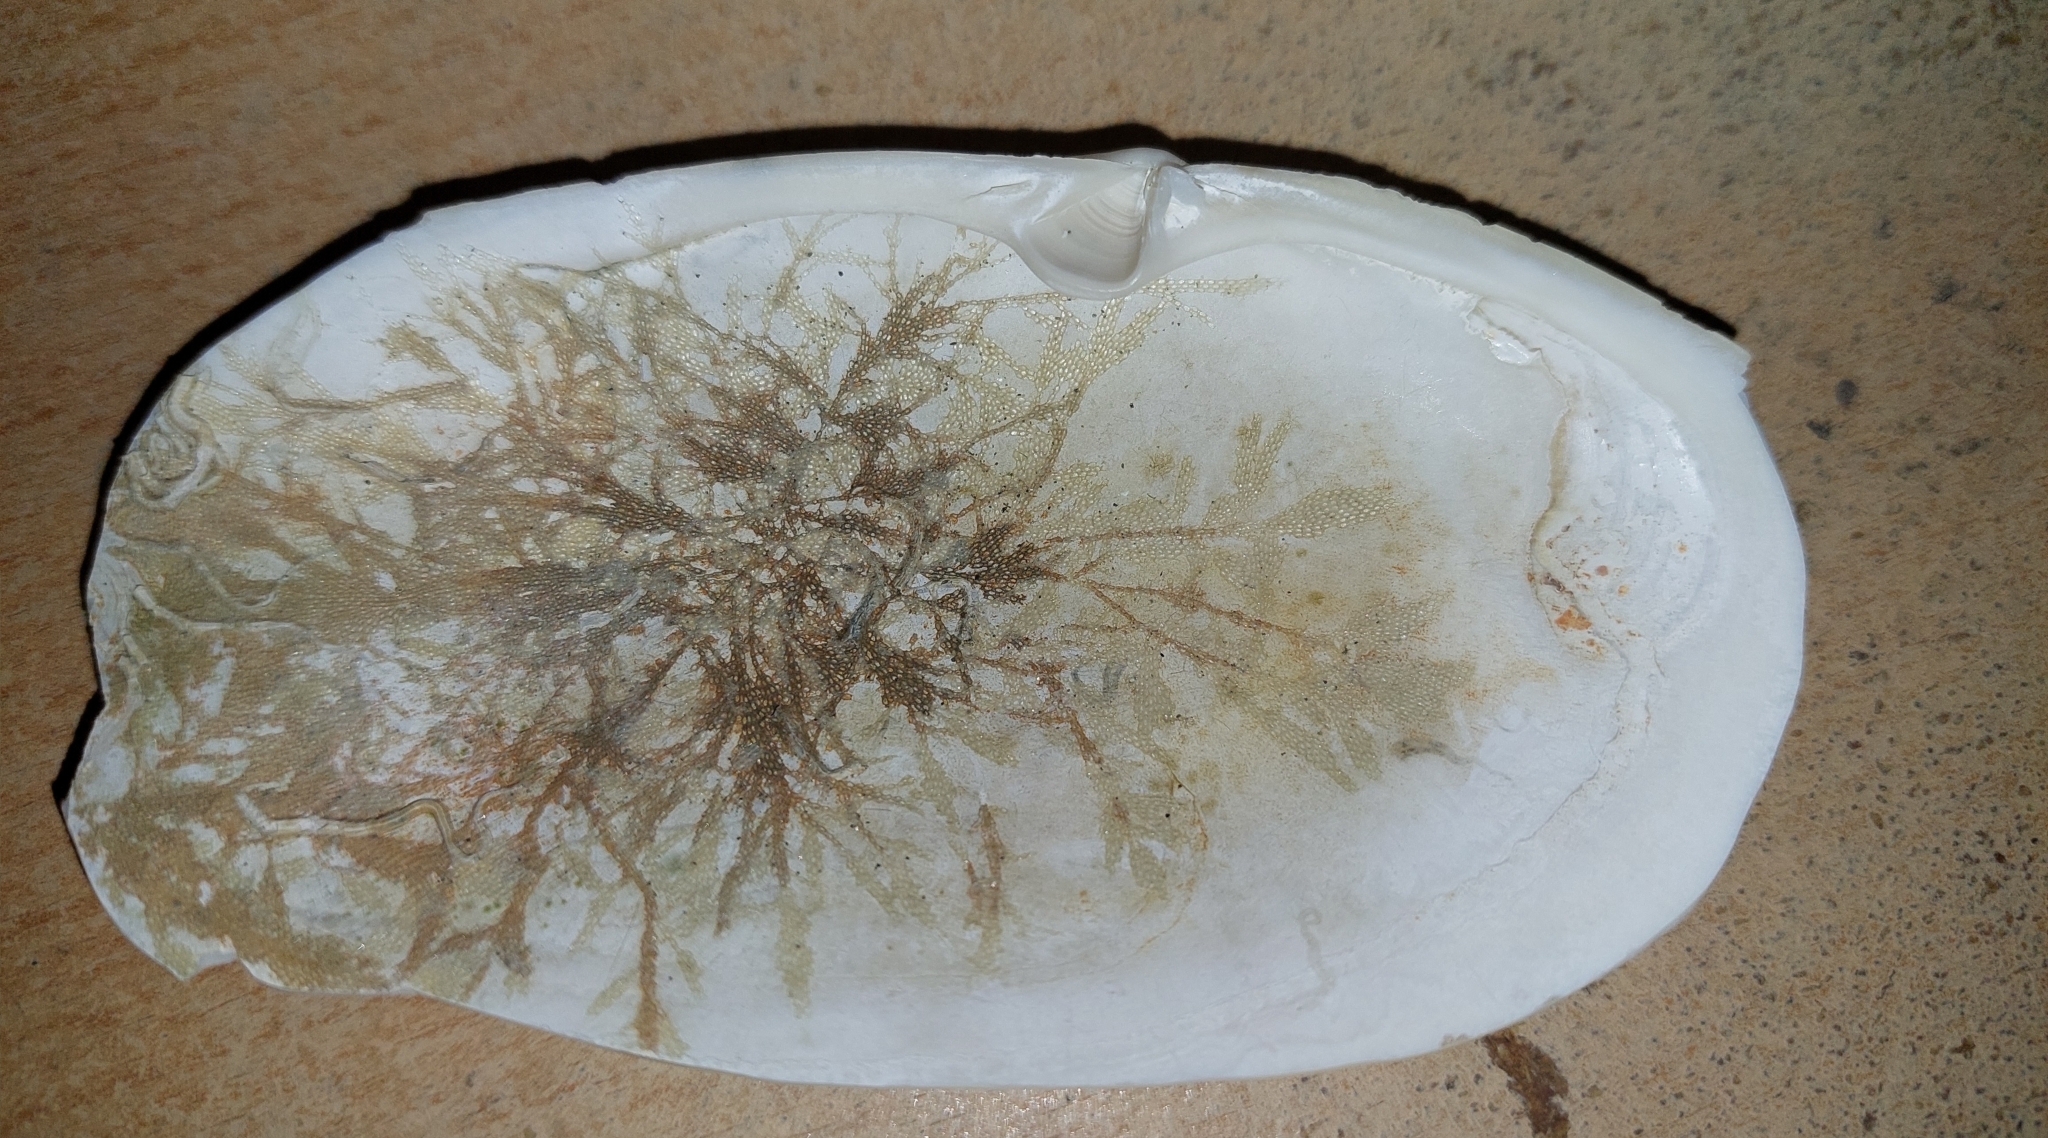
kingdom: Animalia
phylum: Bryozoa
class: Gymnolaemata
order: Cheilostomatida
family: Electridae
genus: Electra
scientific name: Electra monostachys
